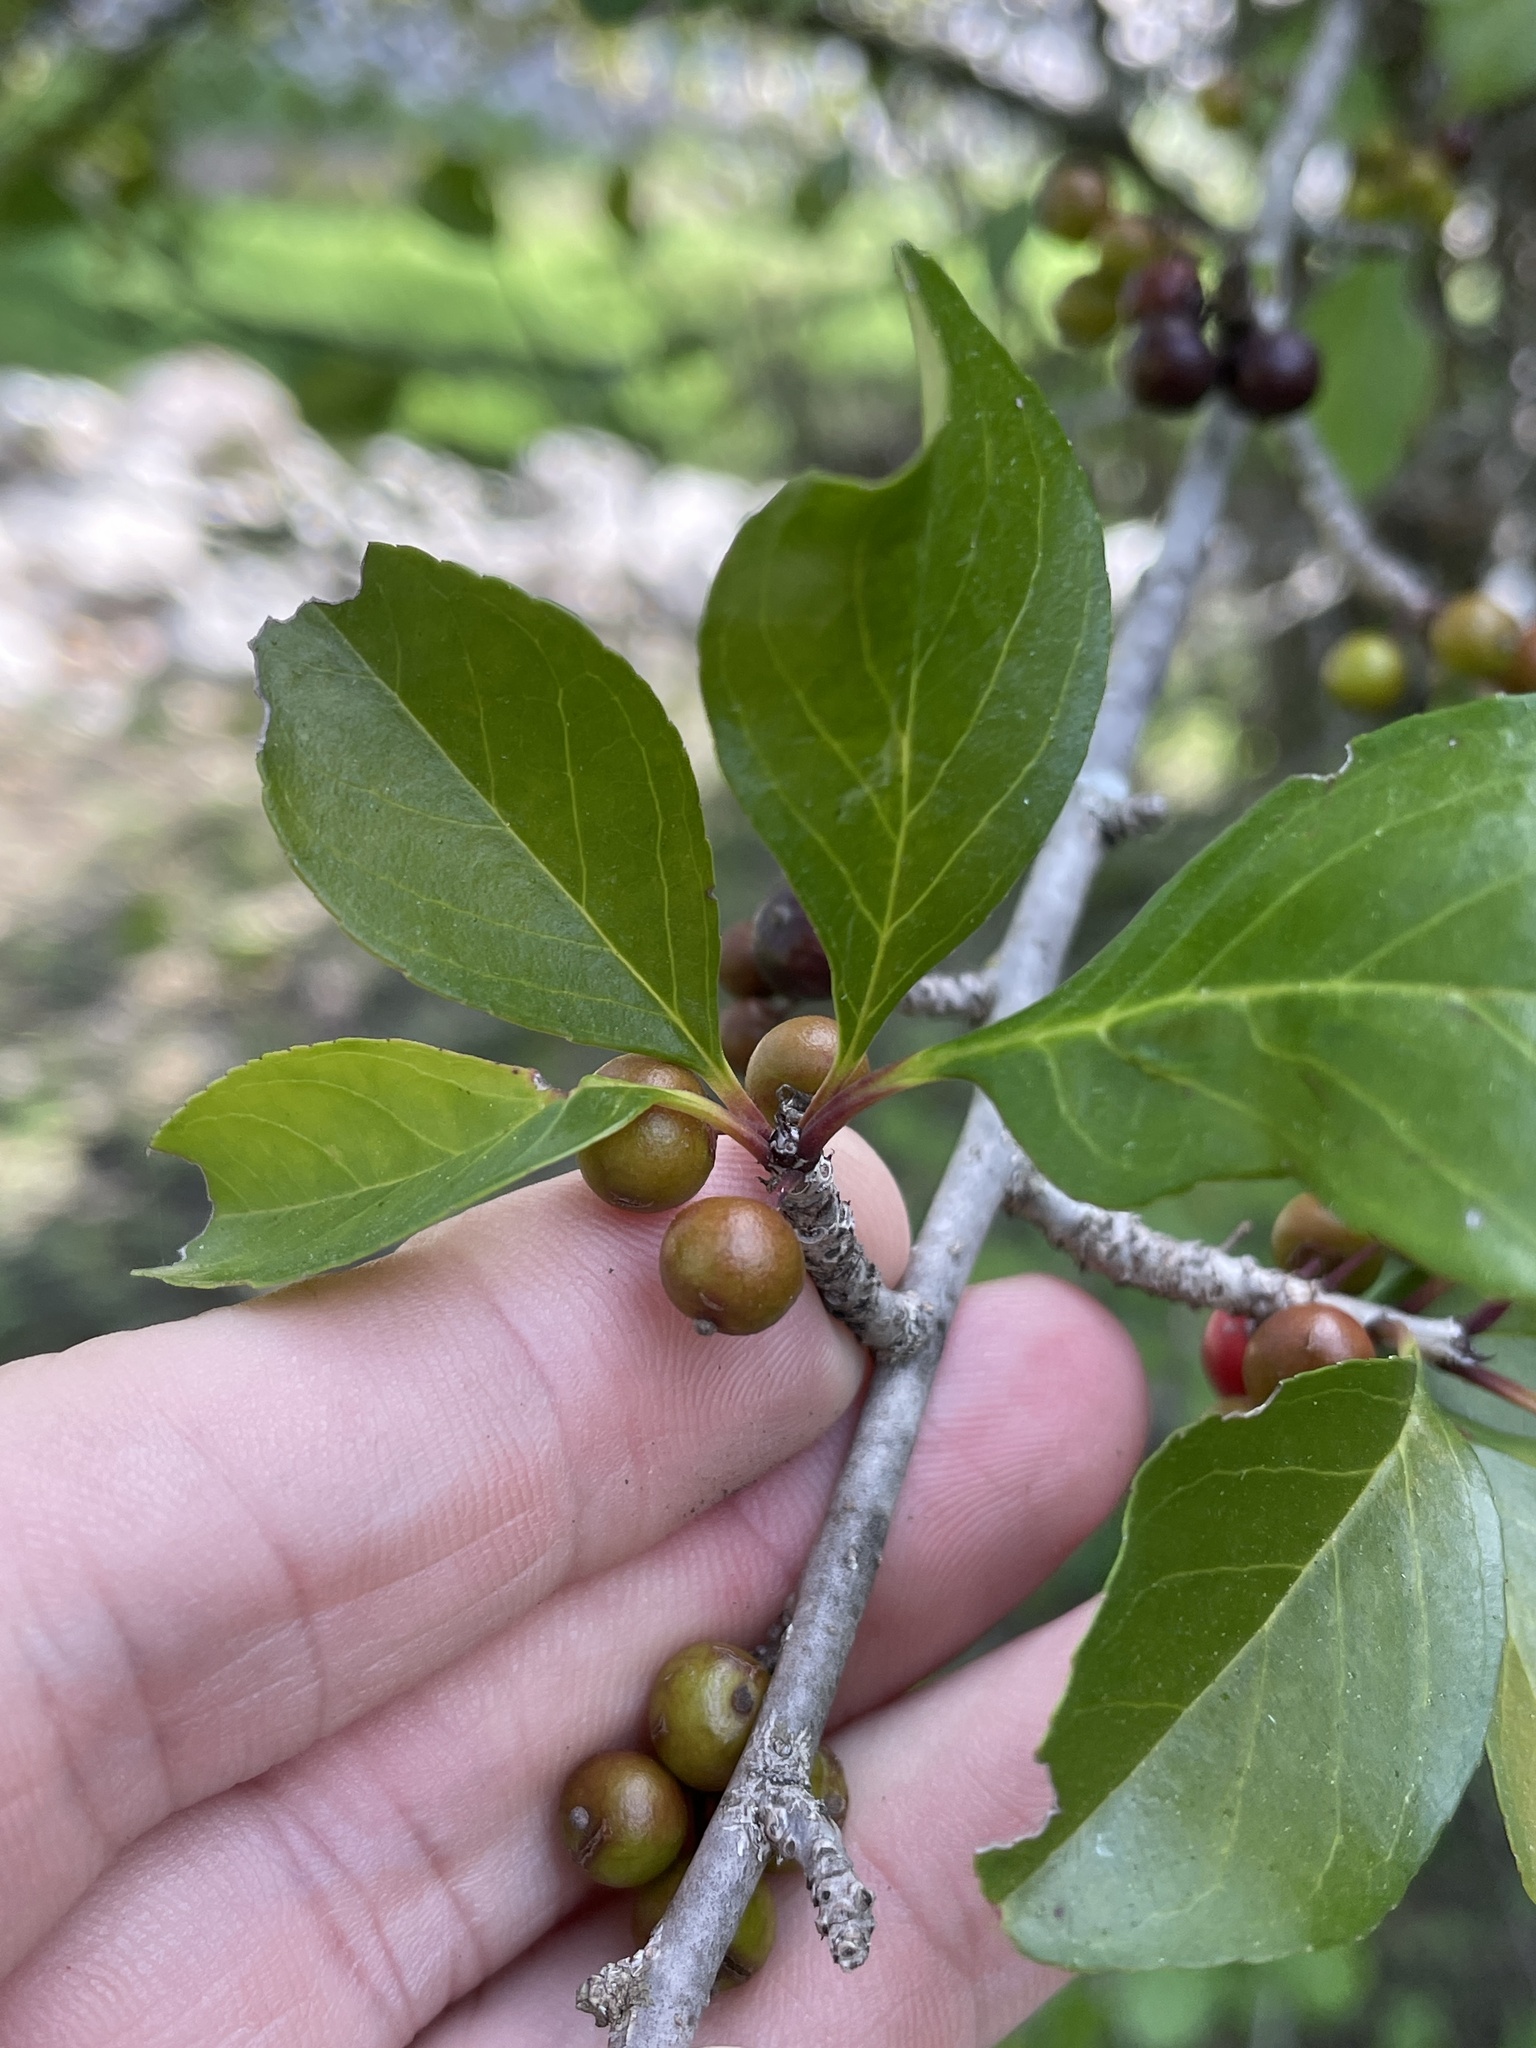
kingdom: Plantae
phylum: Tracheophyta
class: Magnoliopsida
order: Aquifoliales
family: Aquifoliaceae
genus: Ilex
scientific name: Ilex decidua
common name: Possum-haw
